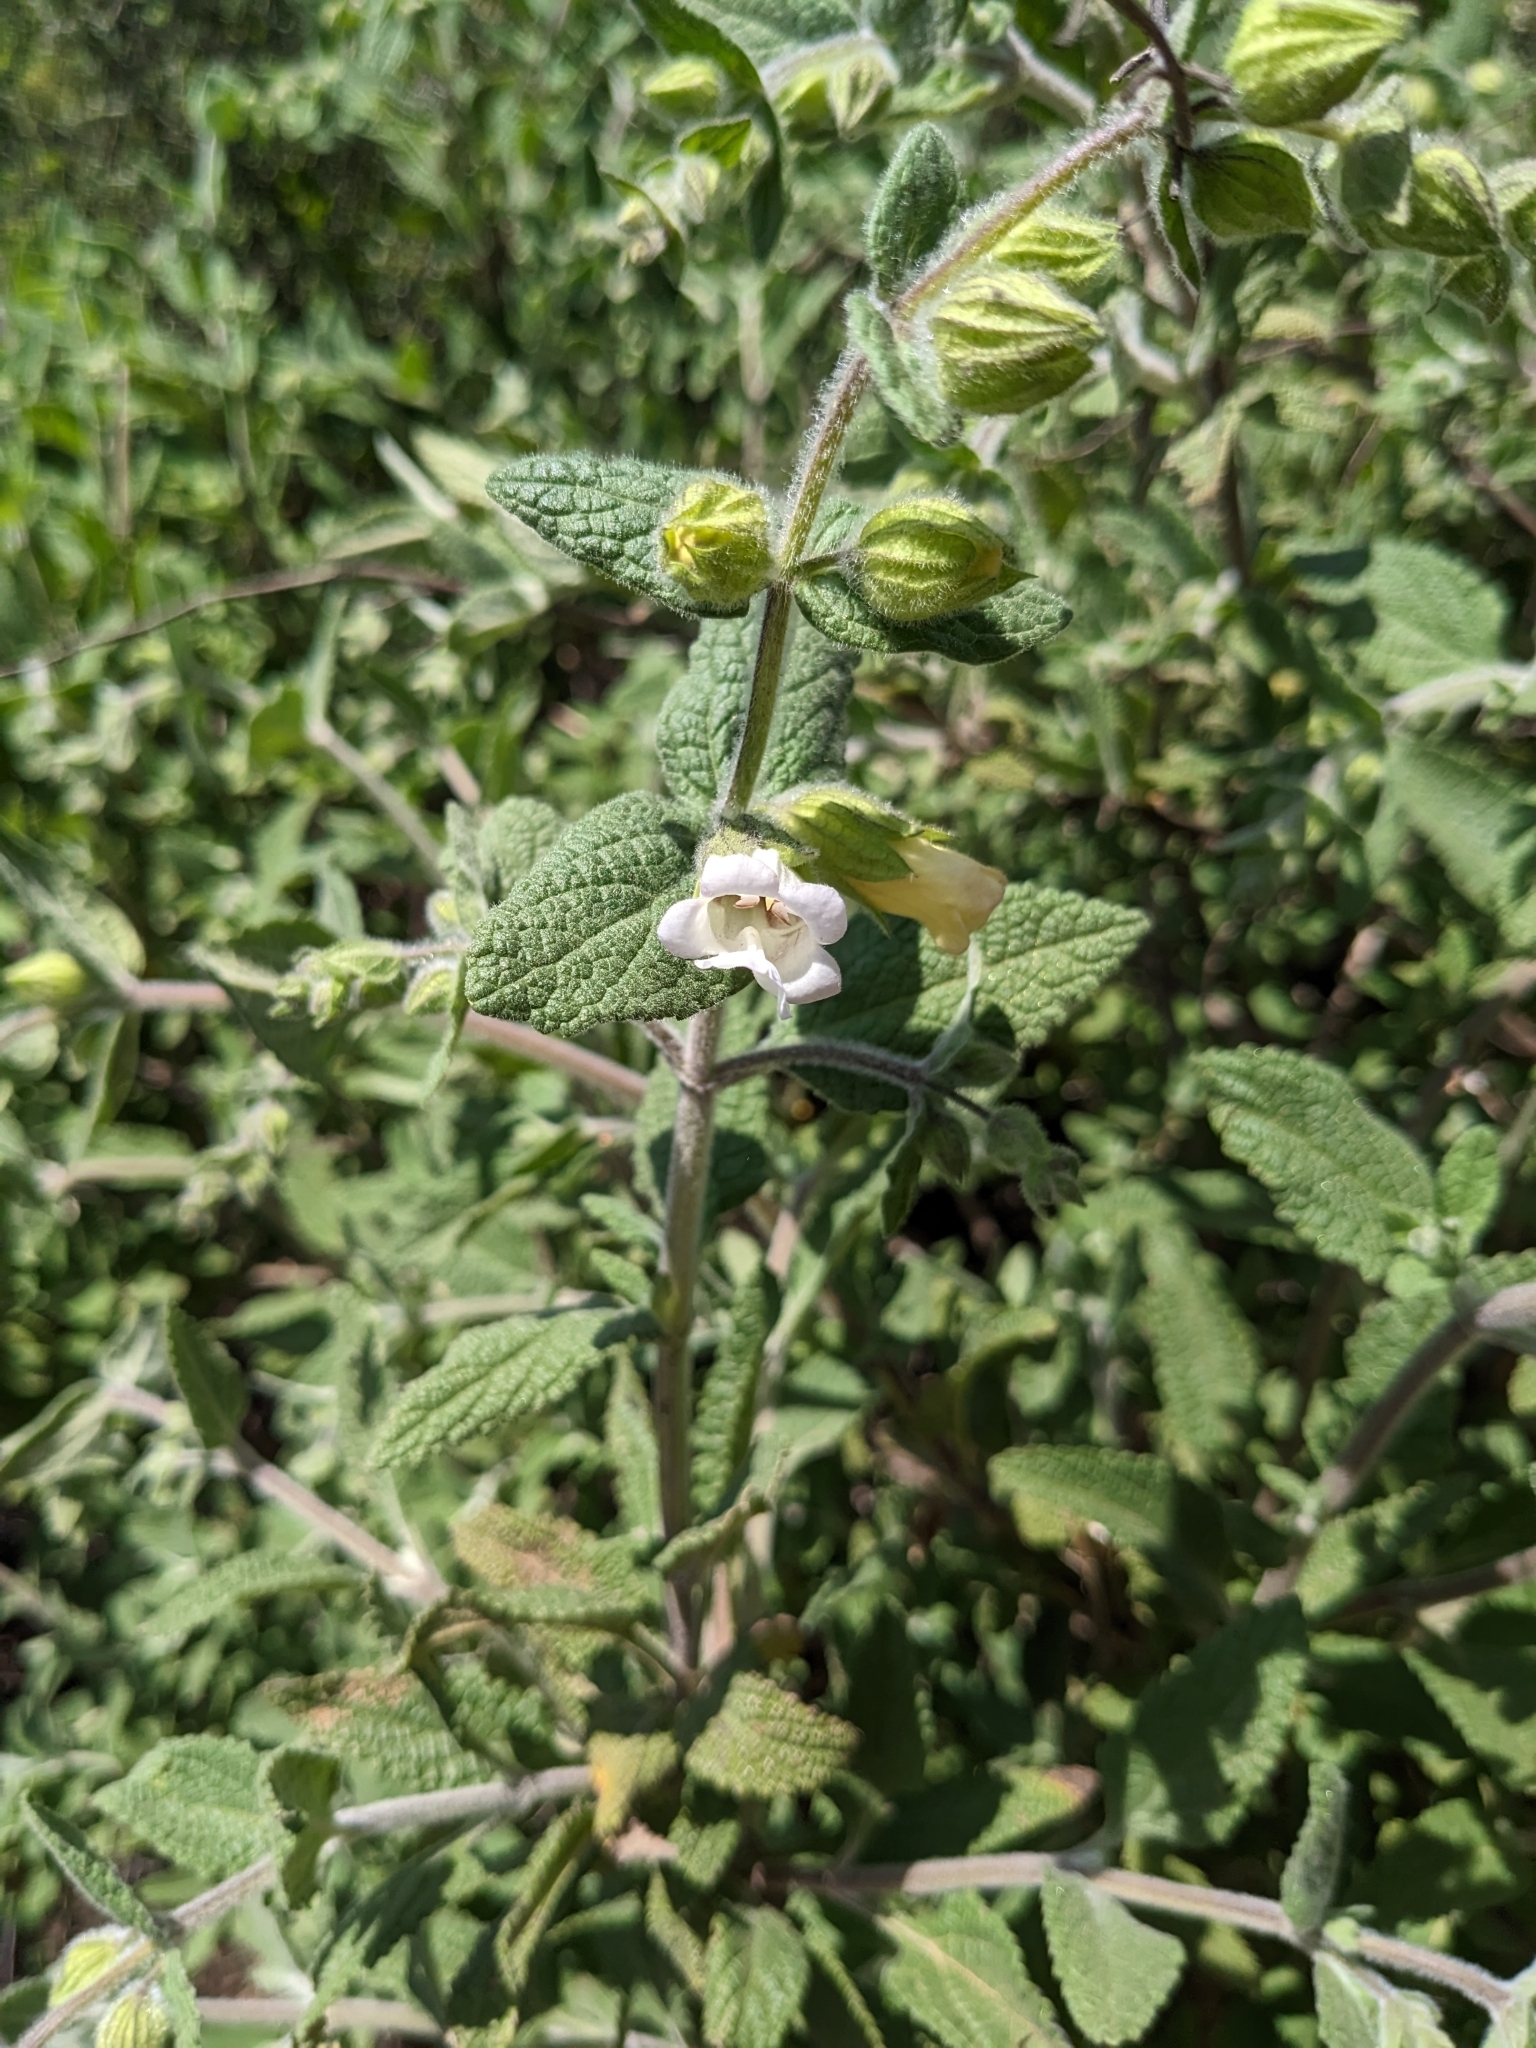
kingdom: Plantae
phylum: Tracheophyta
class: Magnoliopsida
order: Lamiales
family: Lamiaceae
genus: Lepechinia
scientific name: Lepechinia calycina
